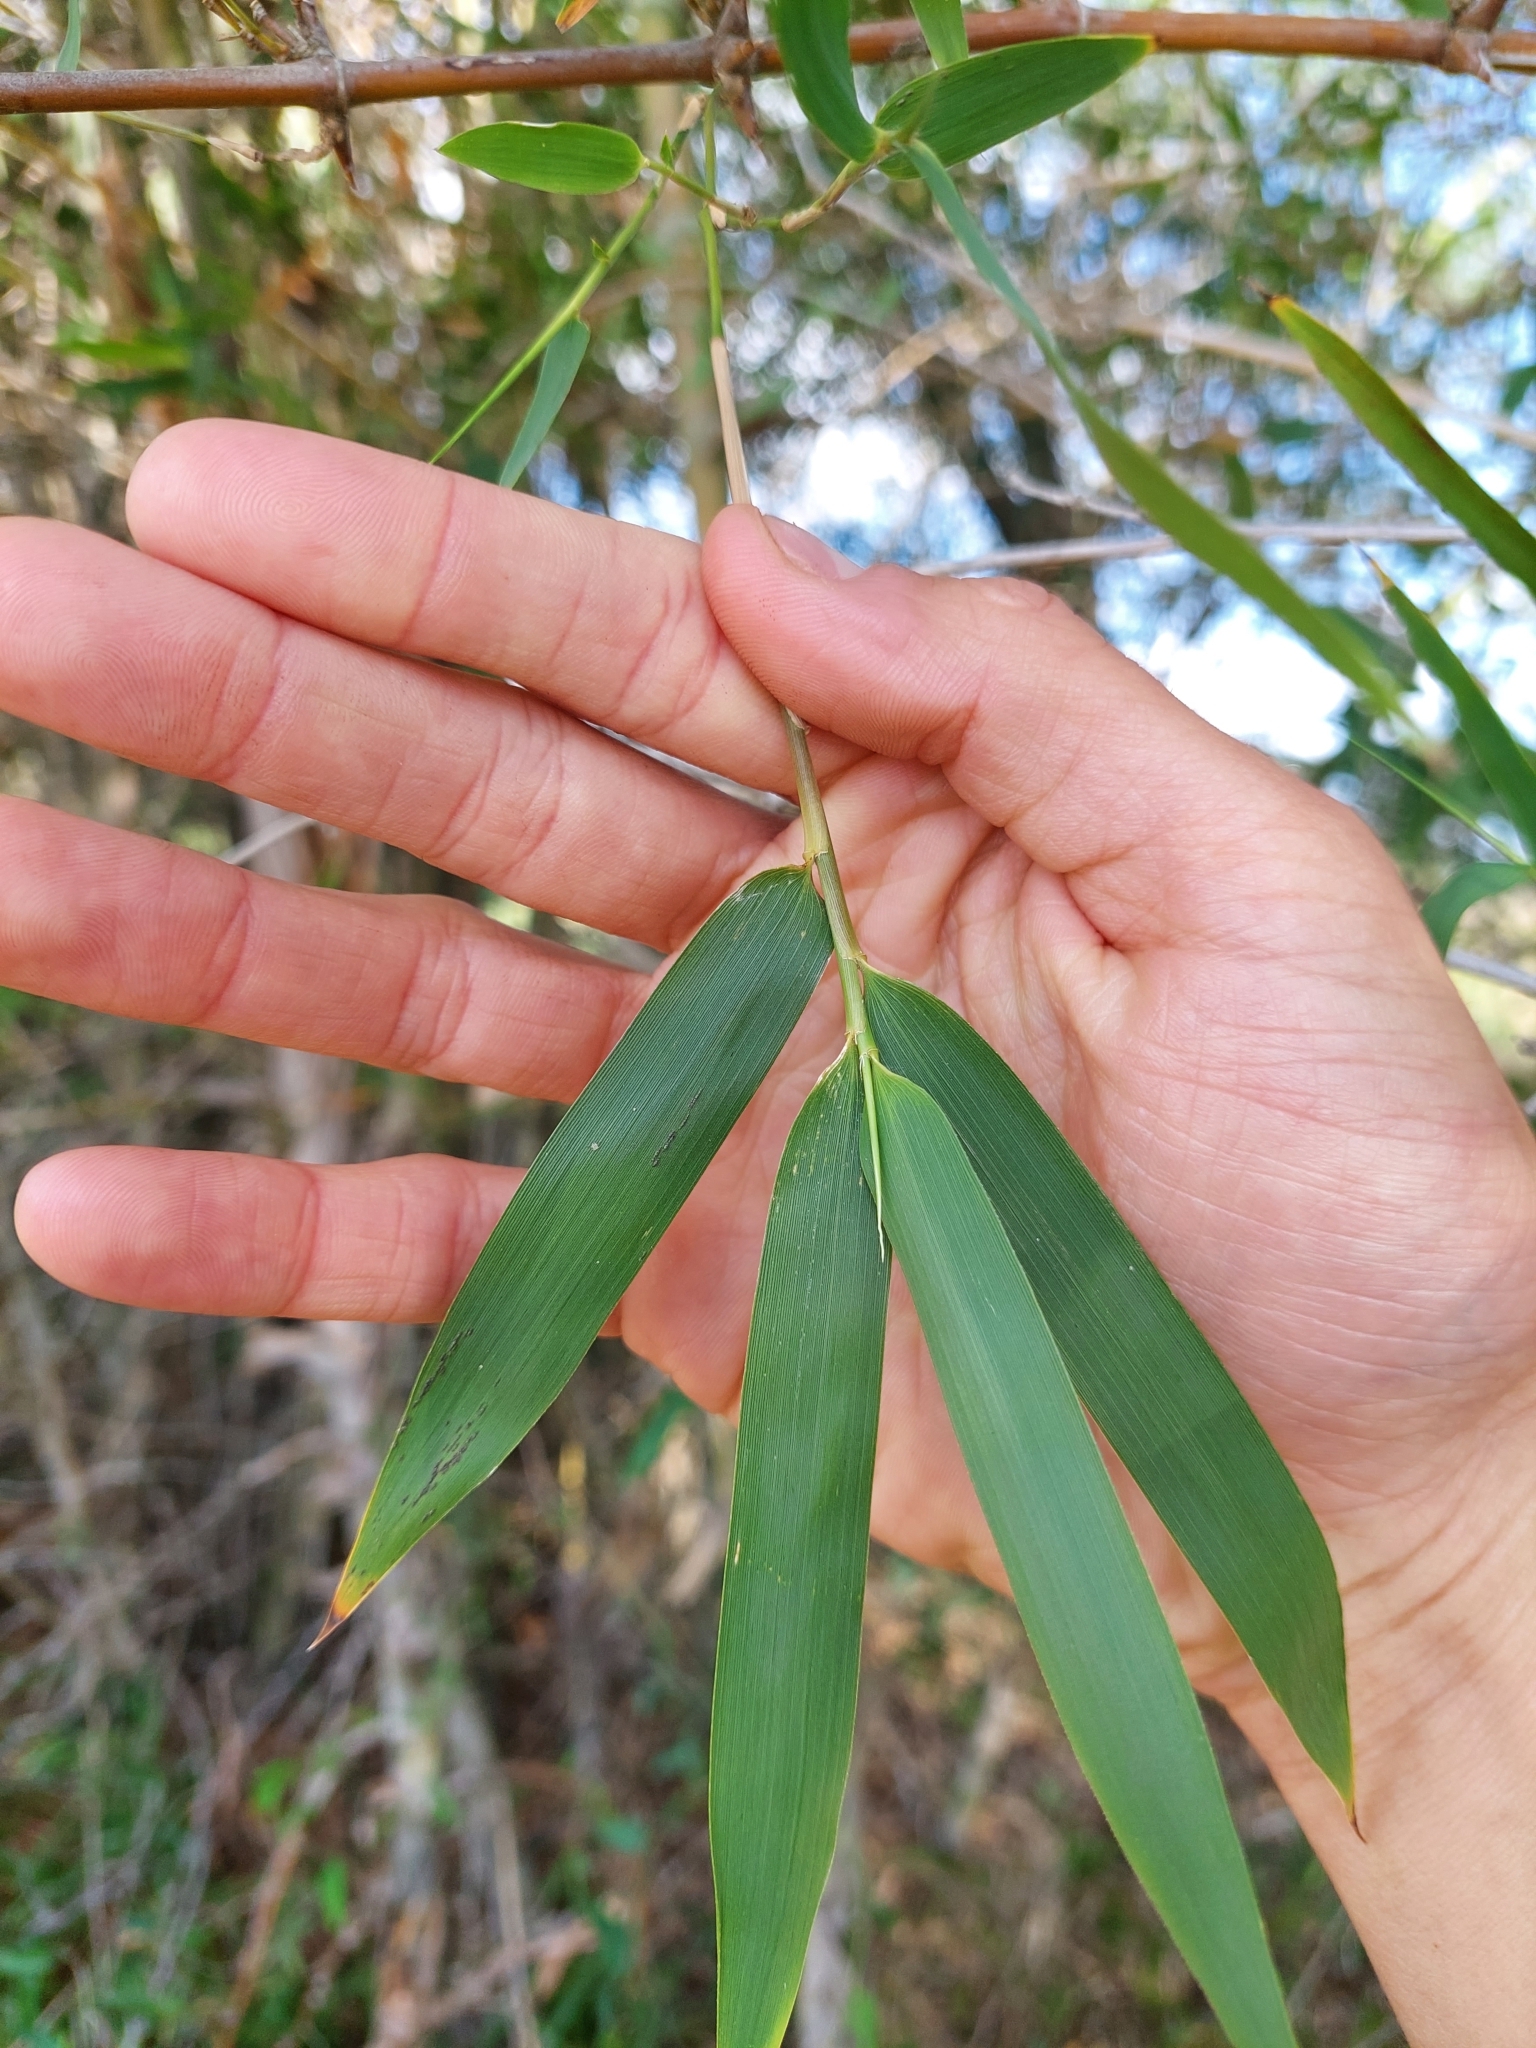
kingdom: Plantae
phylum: Tracheophyta
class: Liliopsida
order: Poales
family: Poaceae
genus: Guadua
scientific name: Guadua paraguayana
